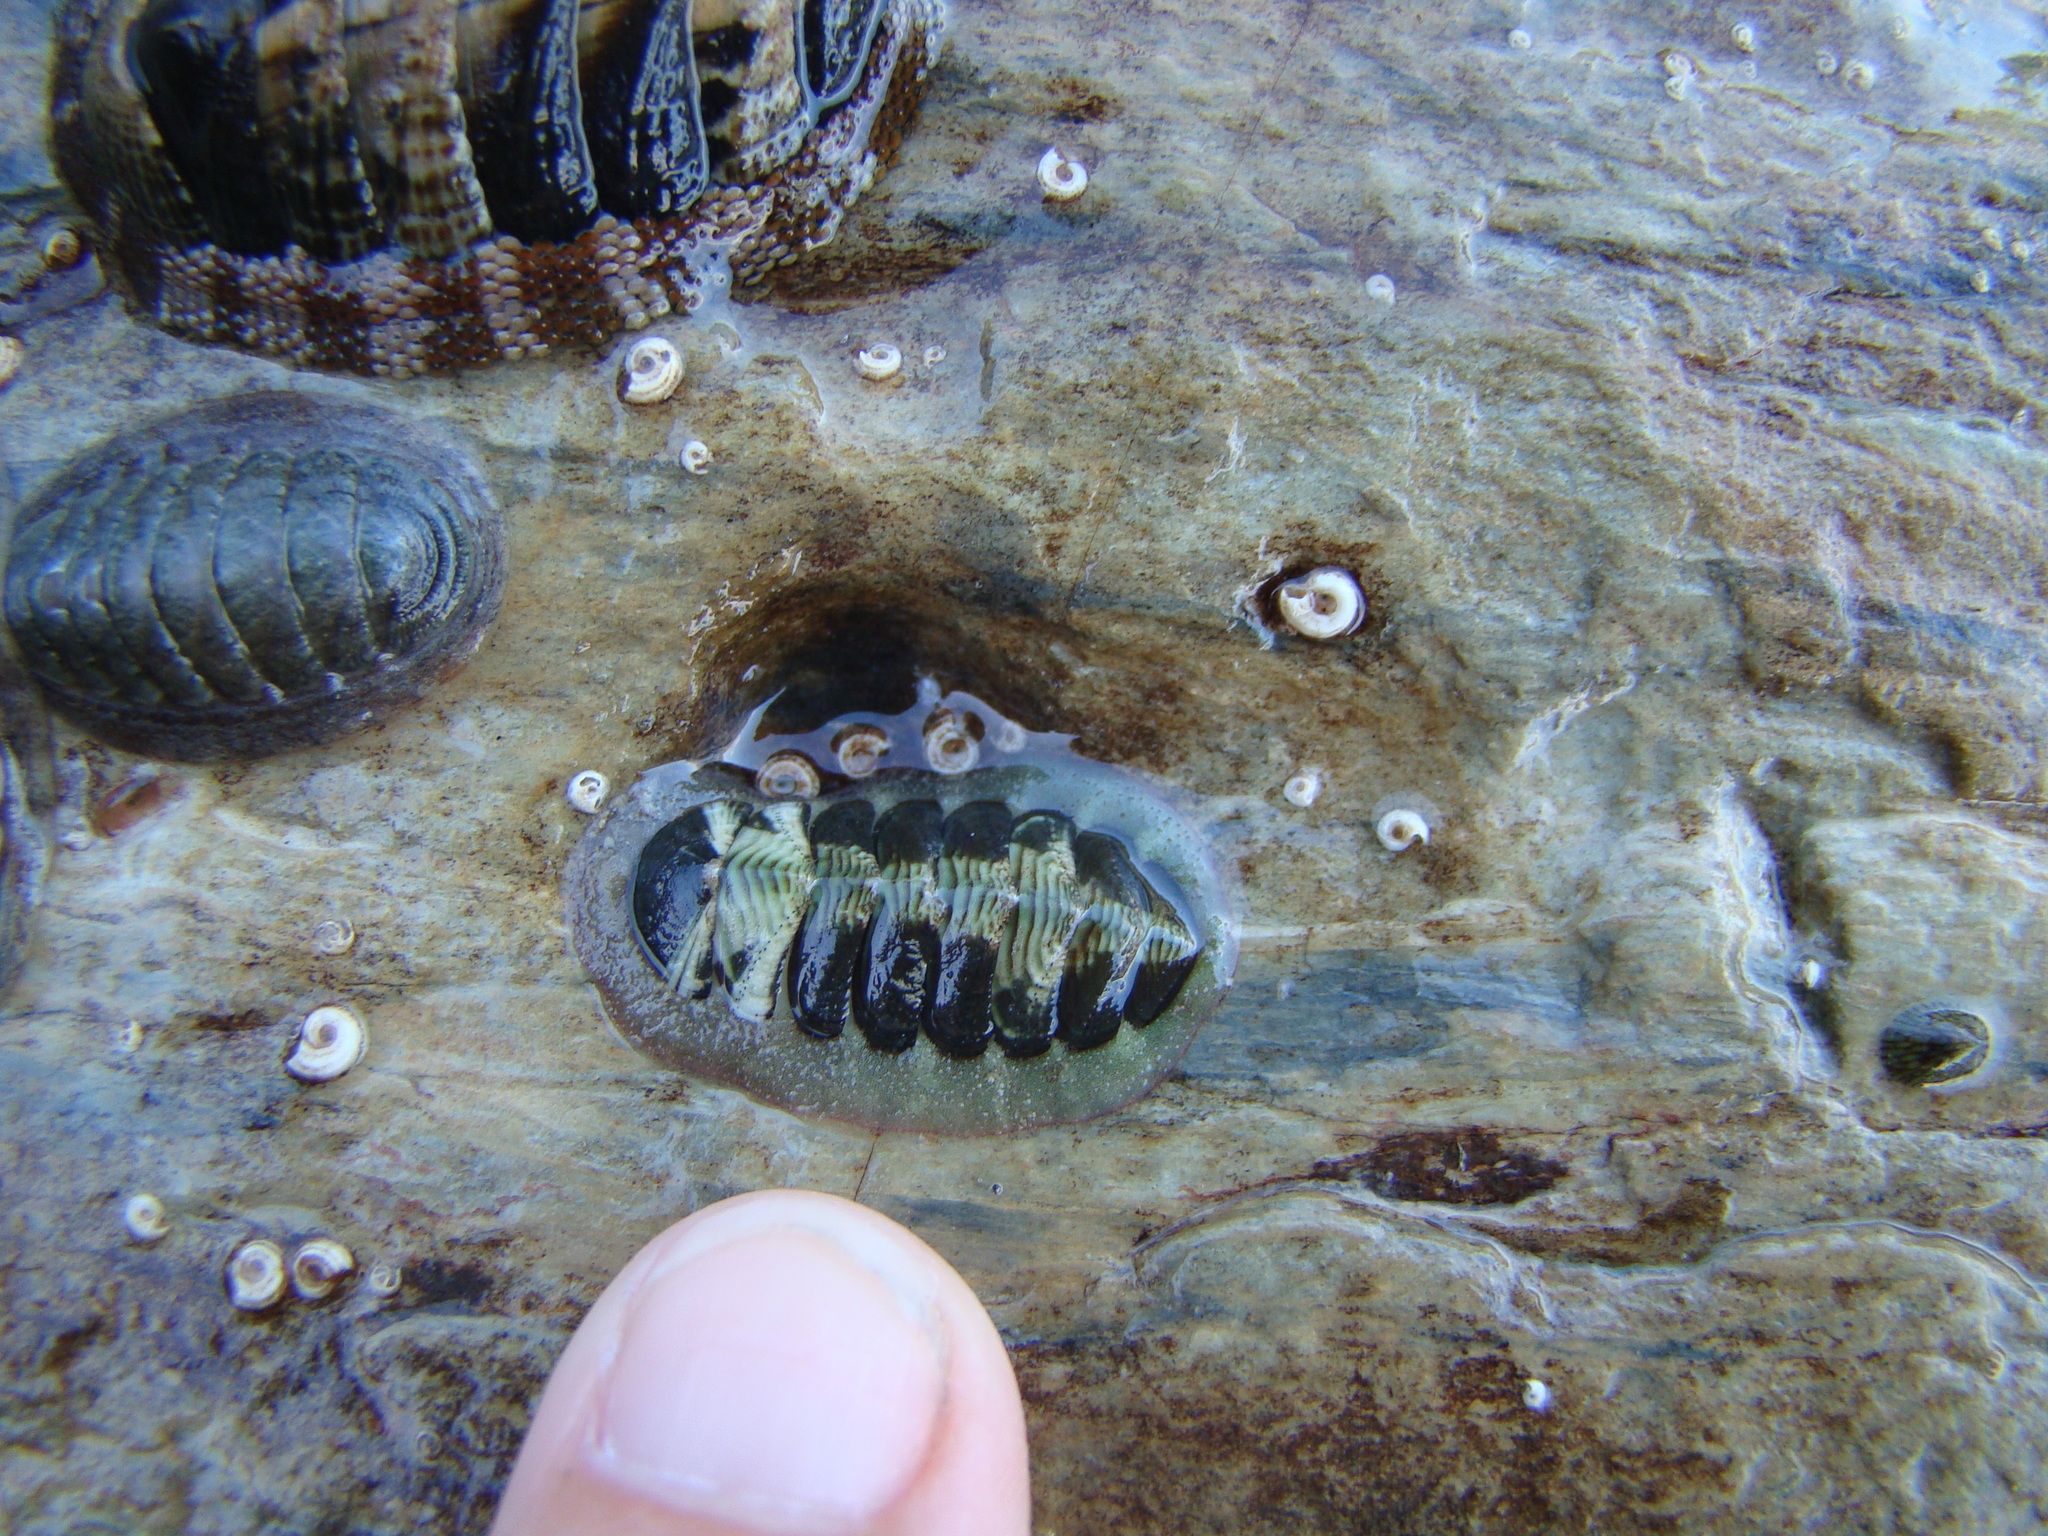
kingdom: Animalia
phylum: Mollusca
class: Polyplacophora
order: Chitonida
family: Chitonidae
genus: Onithochiton
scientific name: Onithochiton neglectus
